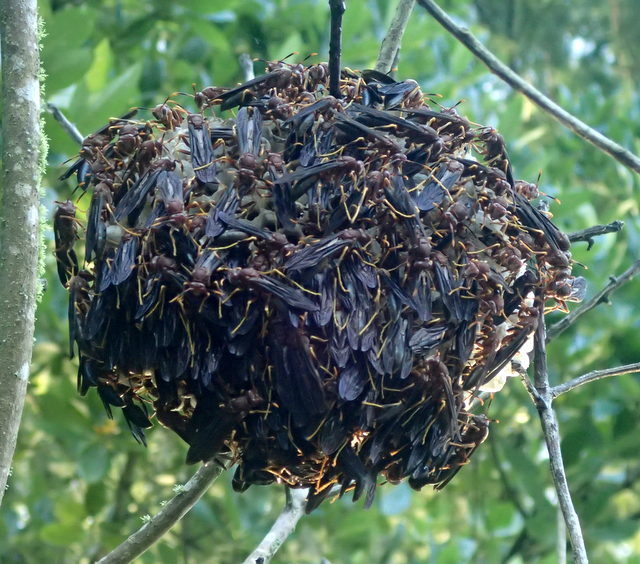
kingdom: Animalia
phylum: Arthropoda
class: Insecta
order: Hymenoptera
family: Eumenidae
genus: Polistes
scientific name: Polistes annularis
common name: Ringed paper wasp
